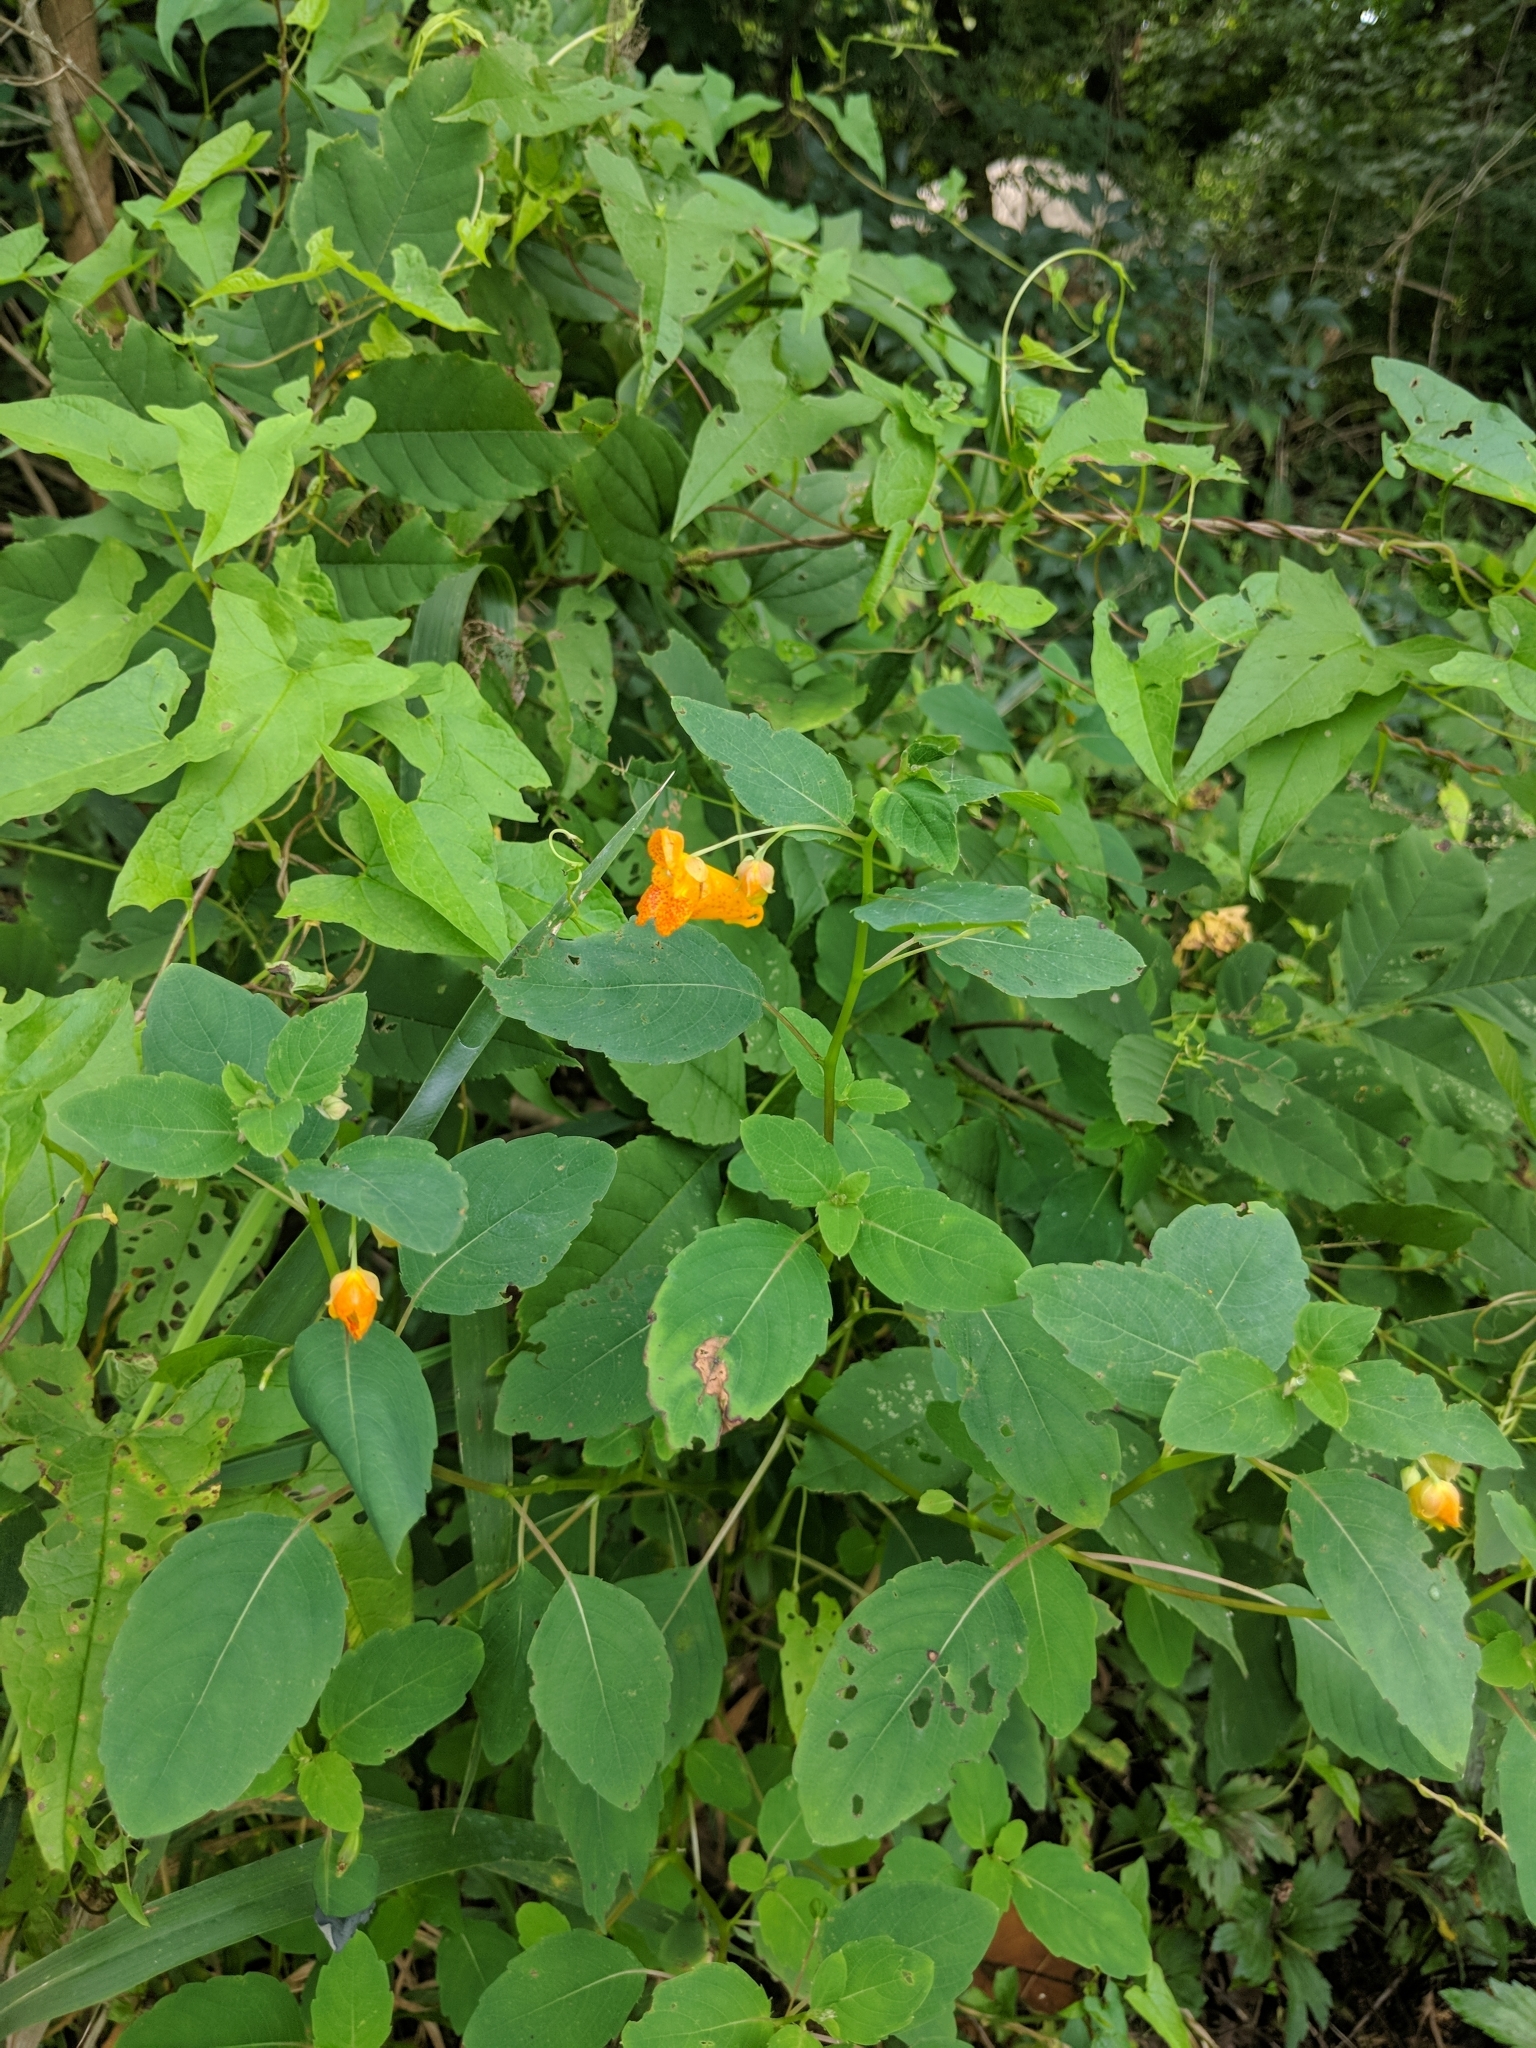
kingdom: Plantae
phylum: Tracheophyta
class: Magnoliopsida
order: Ericales
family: Balsaminaceae
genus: Impatiens
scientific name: Impatiens capensis
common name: Orange balsam
